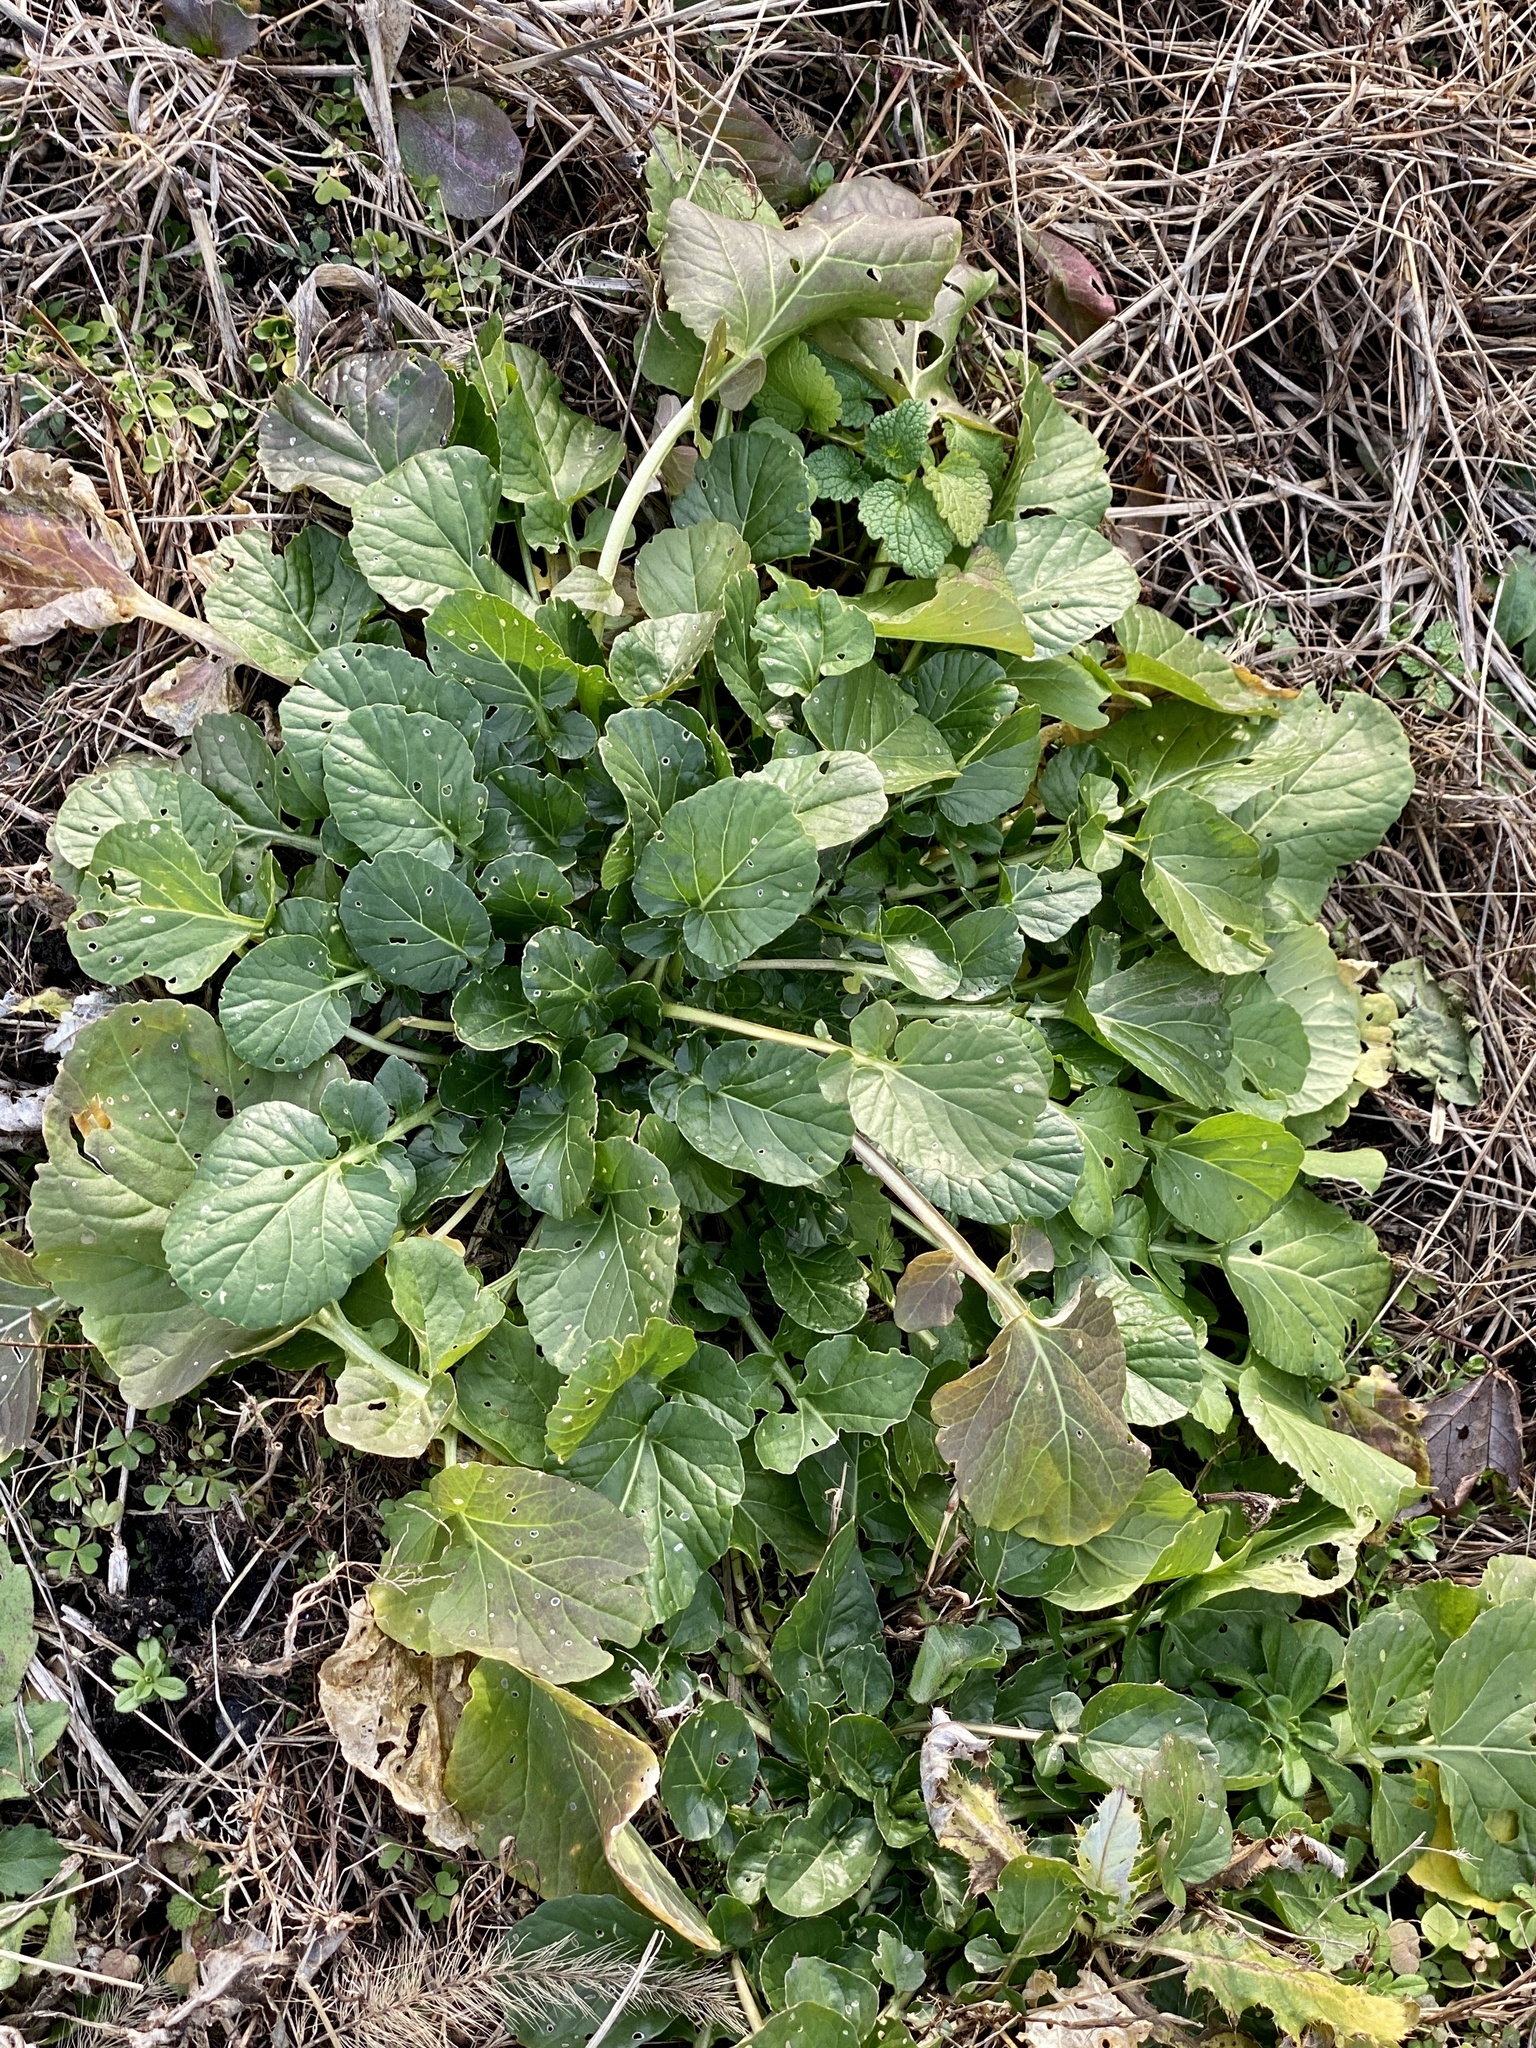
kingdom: Plantae
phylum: Tracheophyta
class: Magnoliopsida
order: Brassicales
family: Brassicaceae
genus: Barbarea
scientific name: Barbarea vulgaris
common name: Cressy-greens
